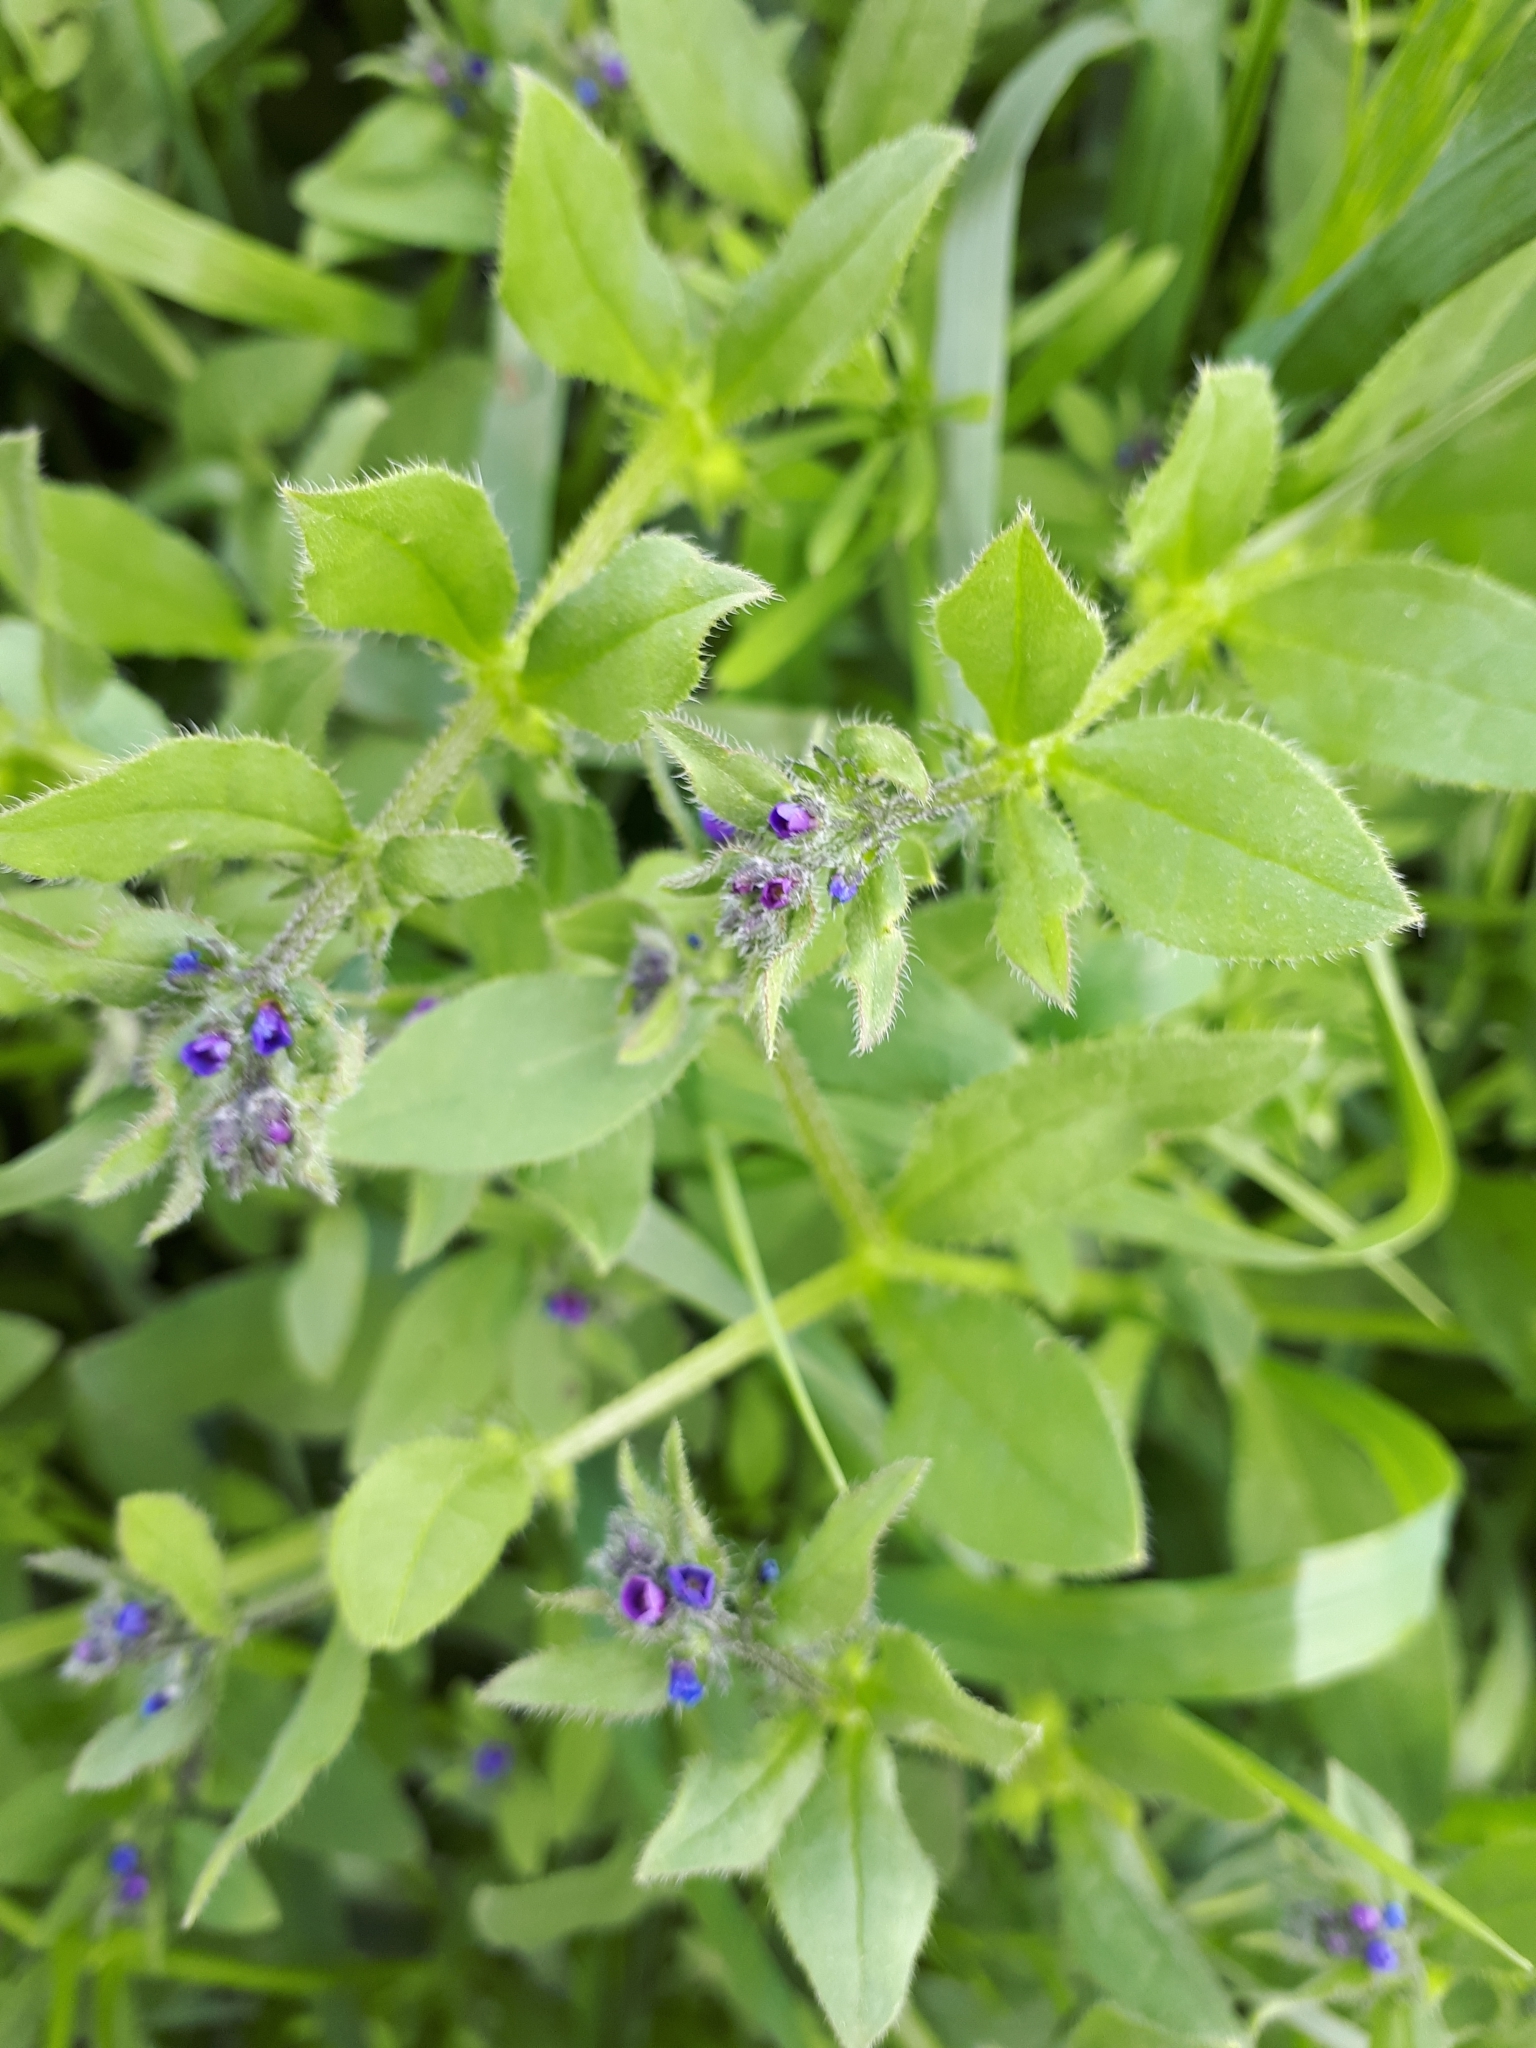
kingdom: Plantae
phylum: Tracheophyta
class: Magnoliopsida
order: Boraginales
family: Boraginaceae
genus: Asperugo
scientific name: Asperugo procumbens
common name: Madwort
